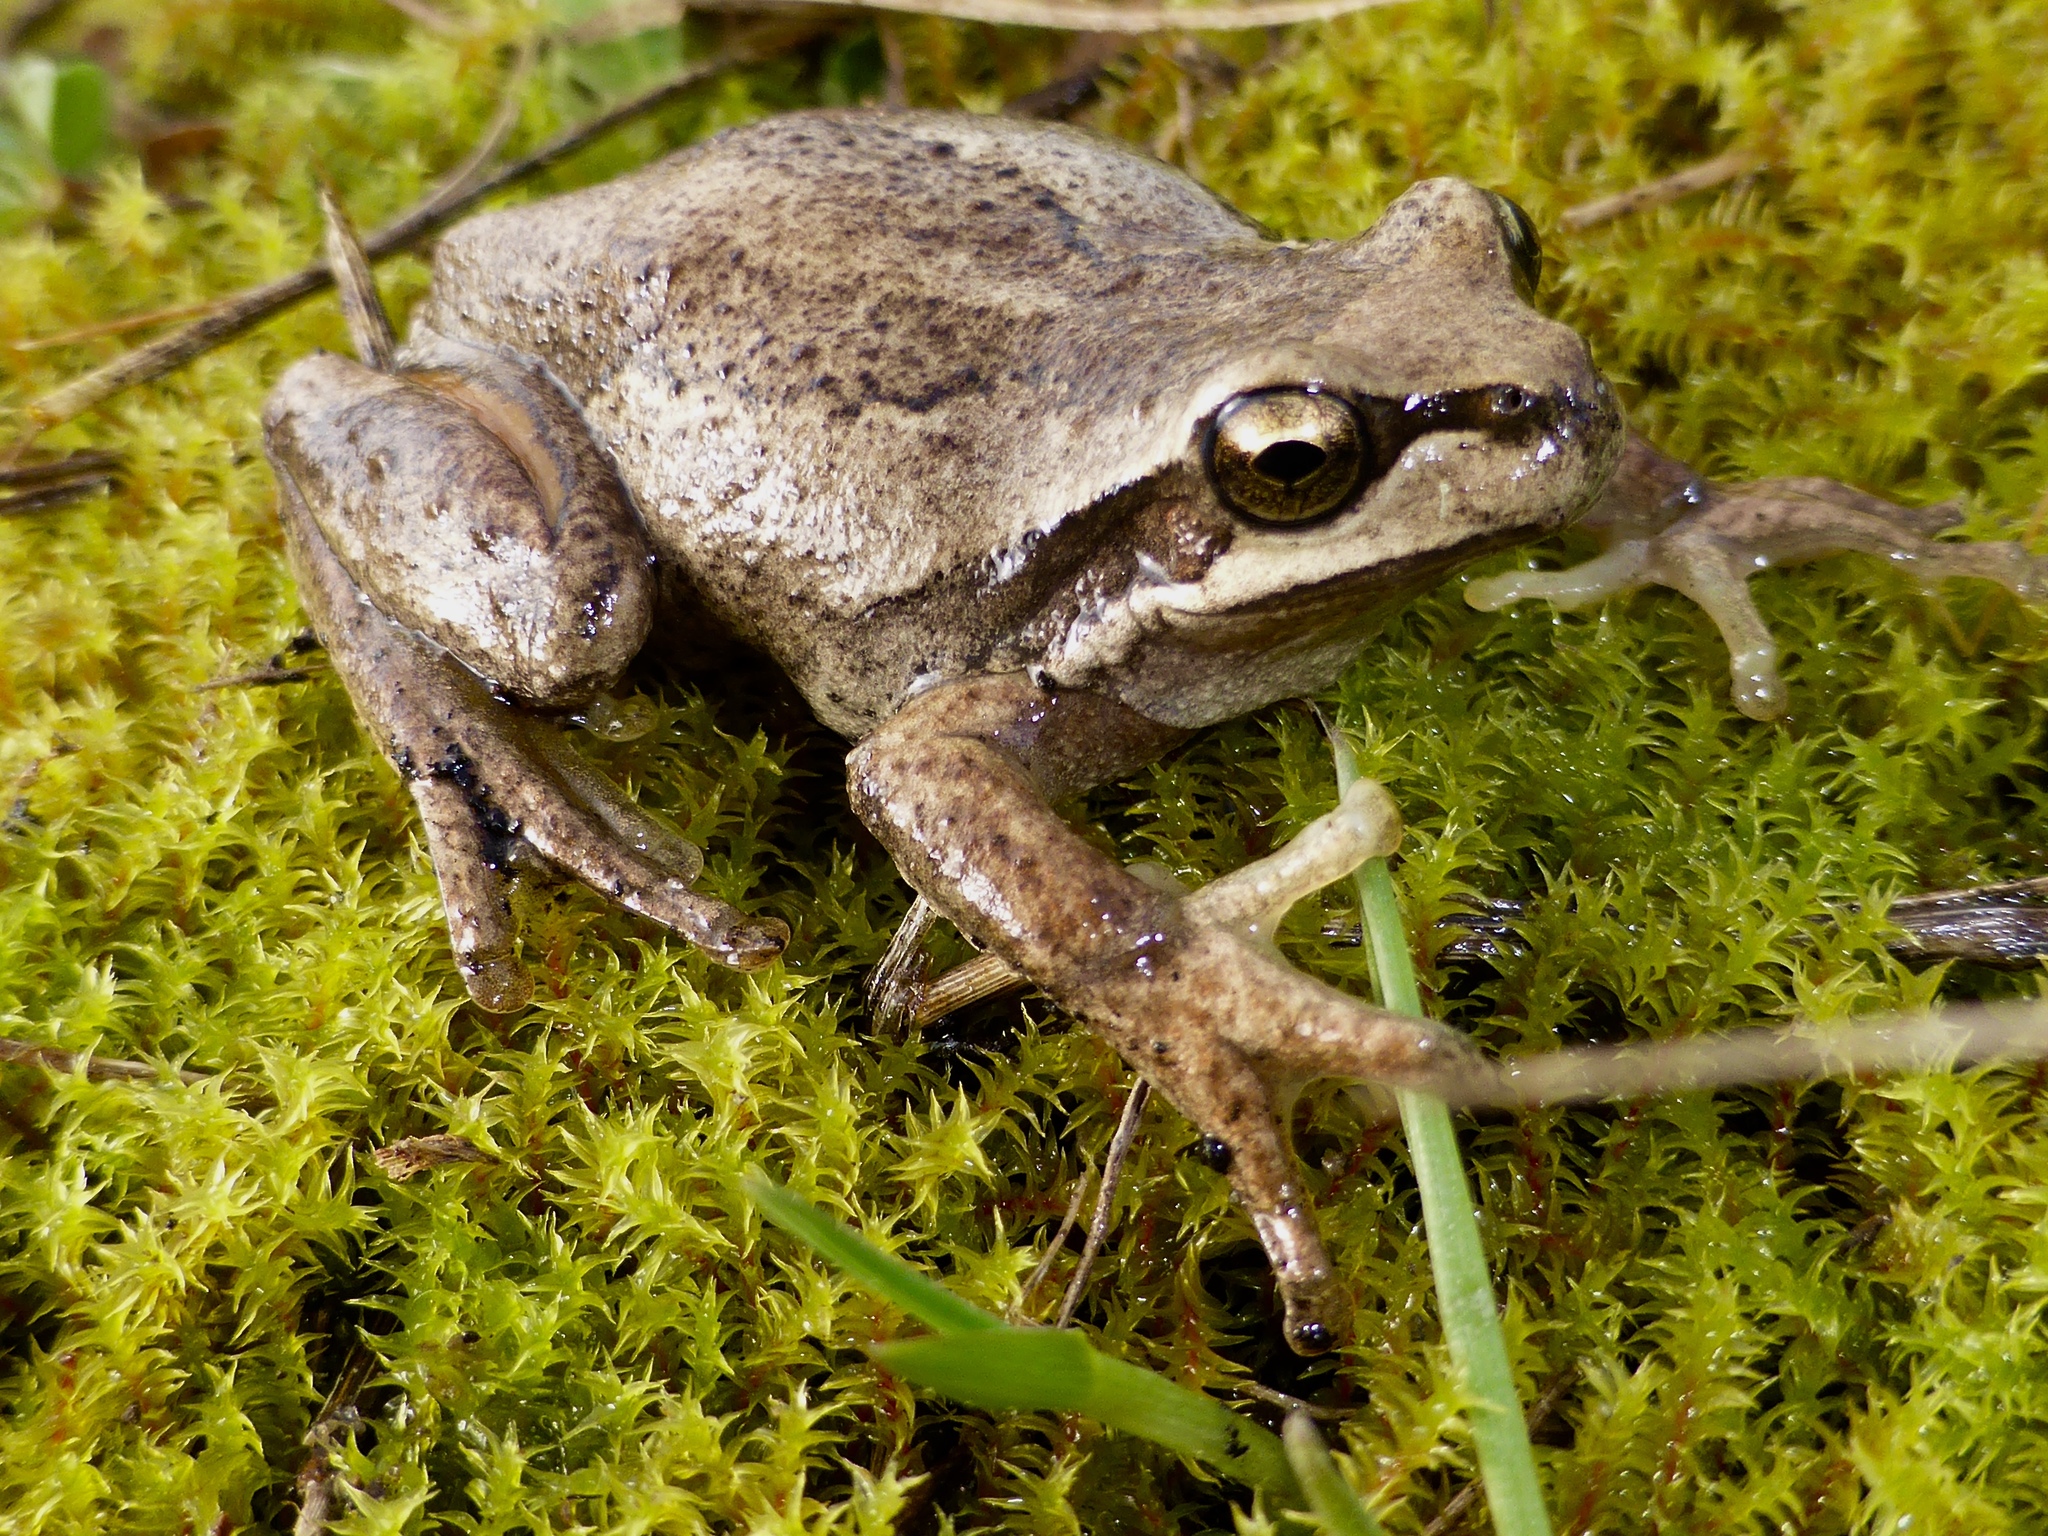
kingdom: Animalia
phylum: Chordata
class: Amphibia
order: Anura
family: Pelodryadidae
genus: Litoria
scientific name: Litoria ewingii
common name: Southern brown tree frog
